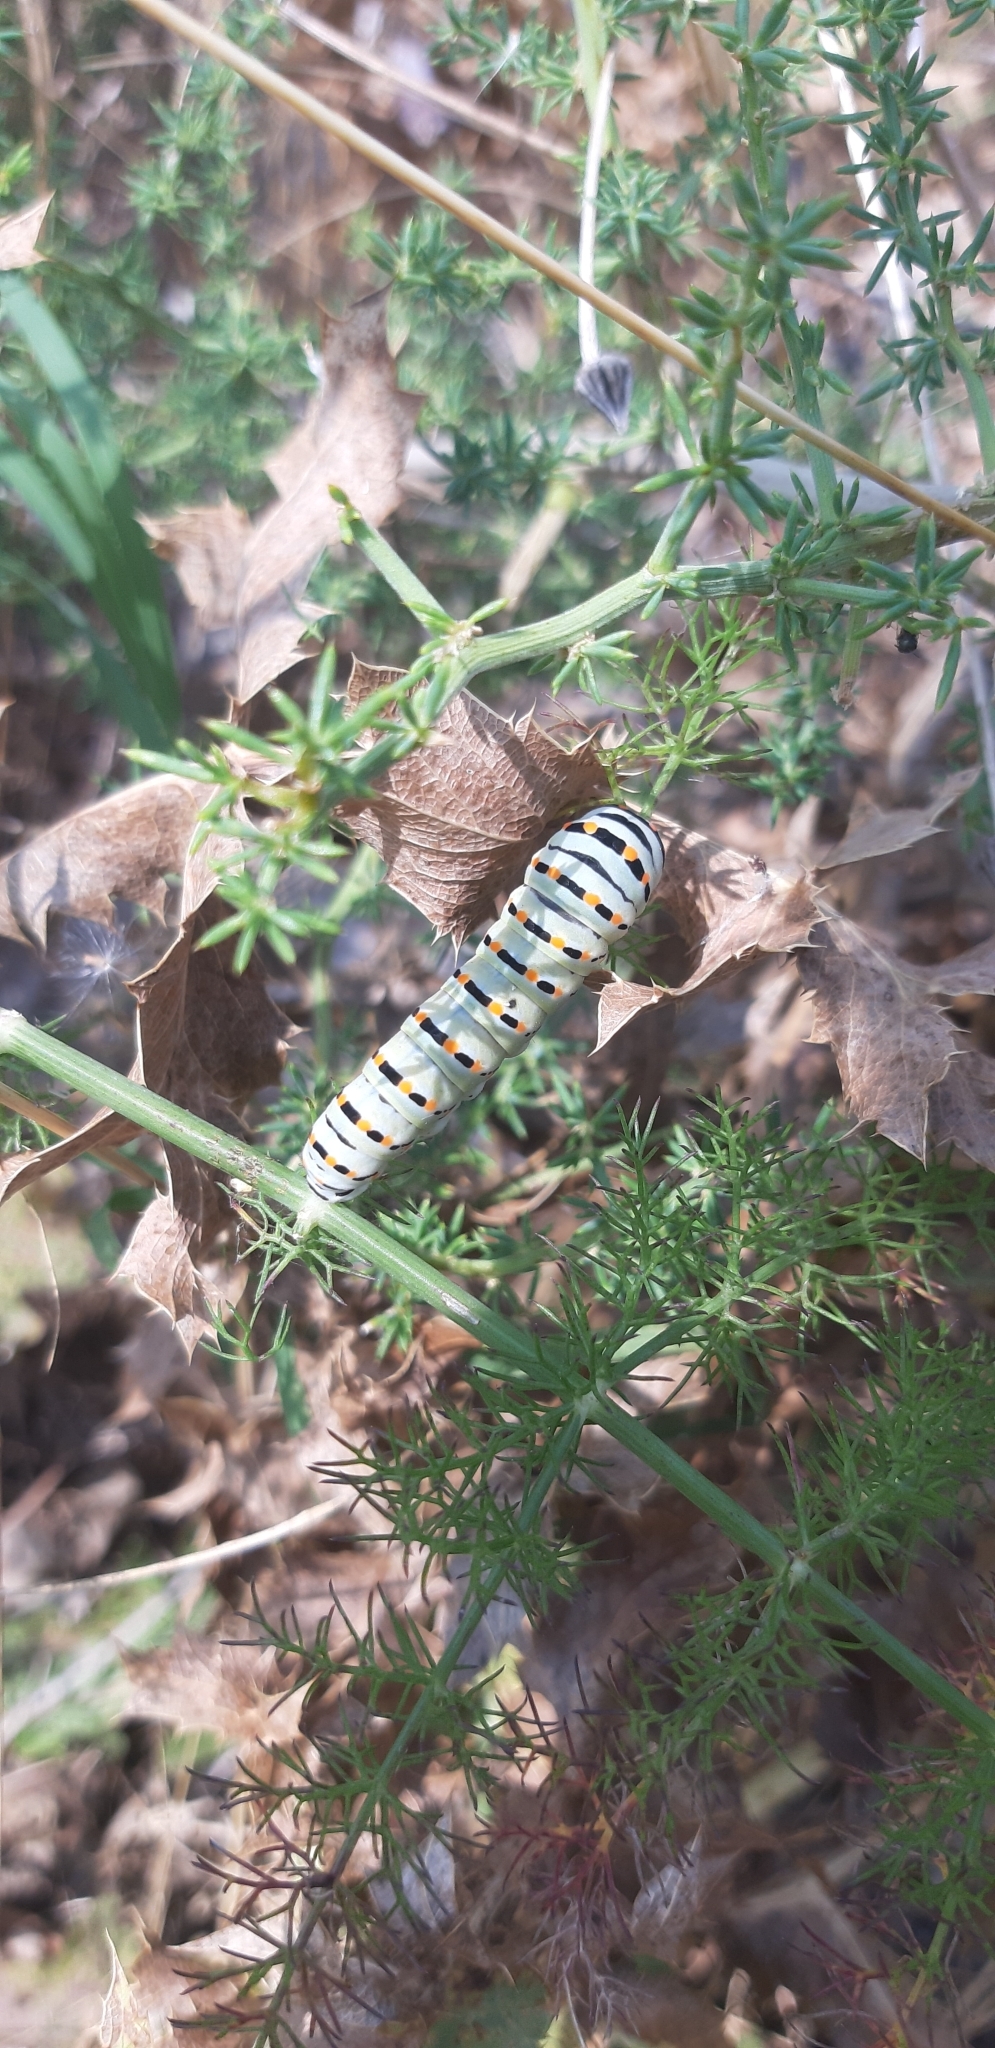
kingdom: Animalia
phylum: Arthropoda
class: Insecta
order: Lepidoptera
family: Papilionidae
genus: Papilio
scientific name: Papilio machaon
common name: Swallowtail
